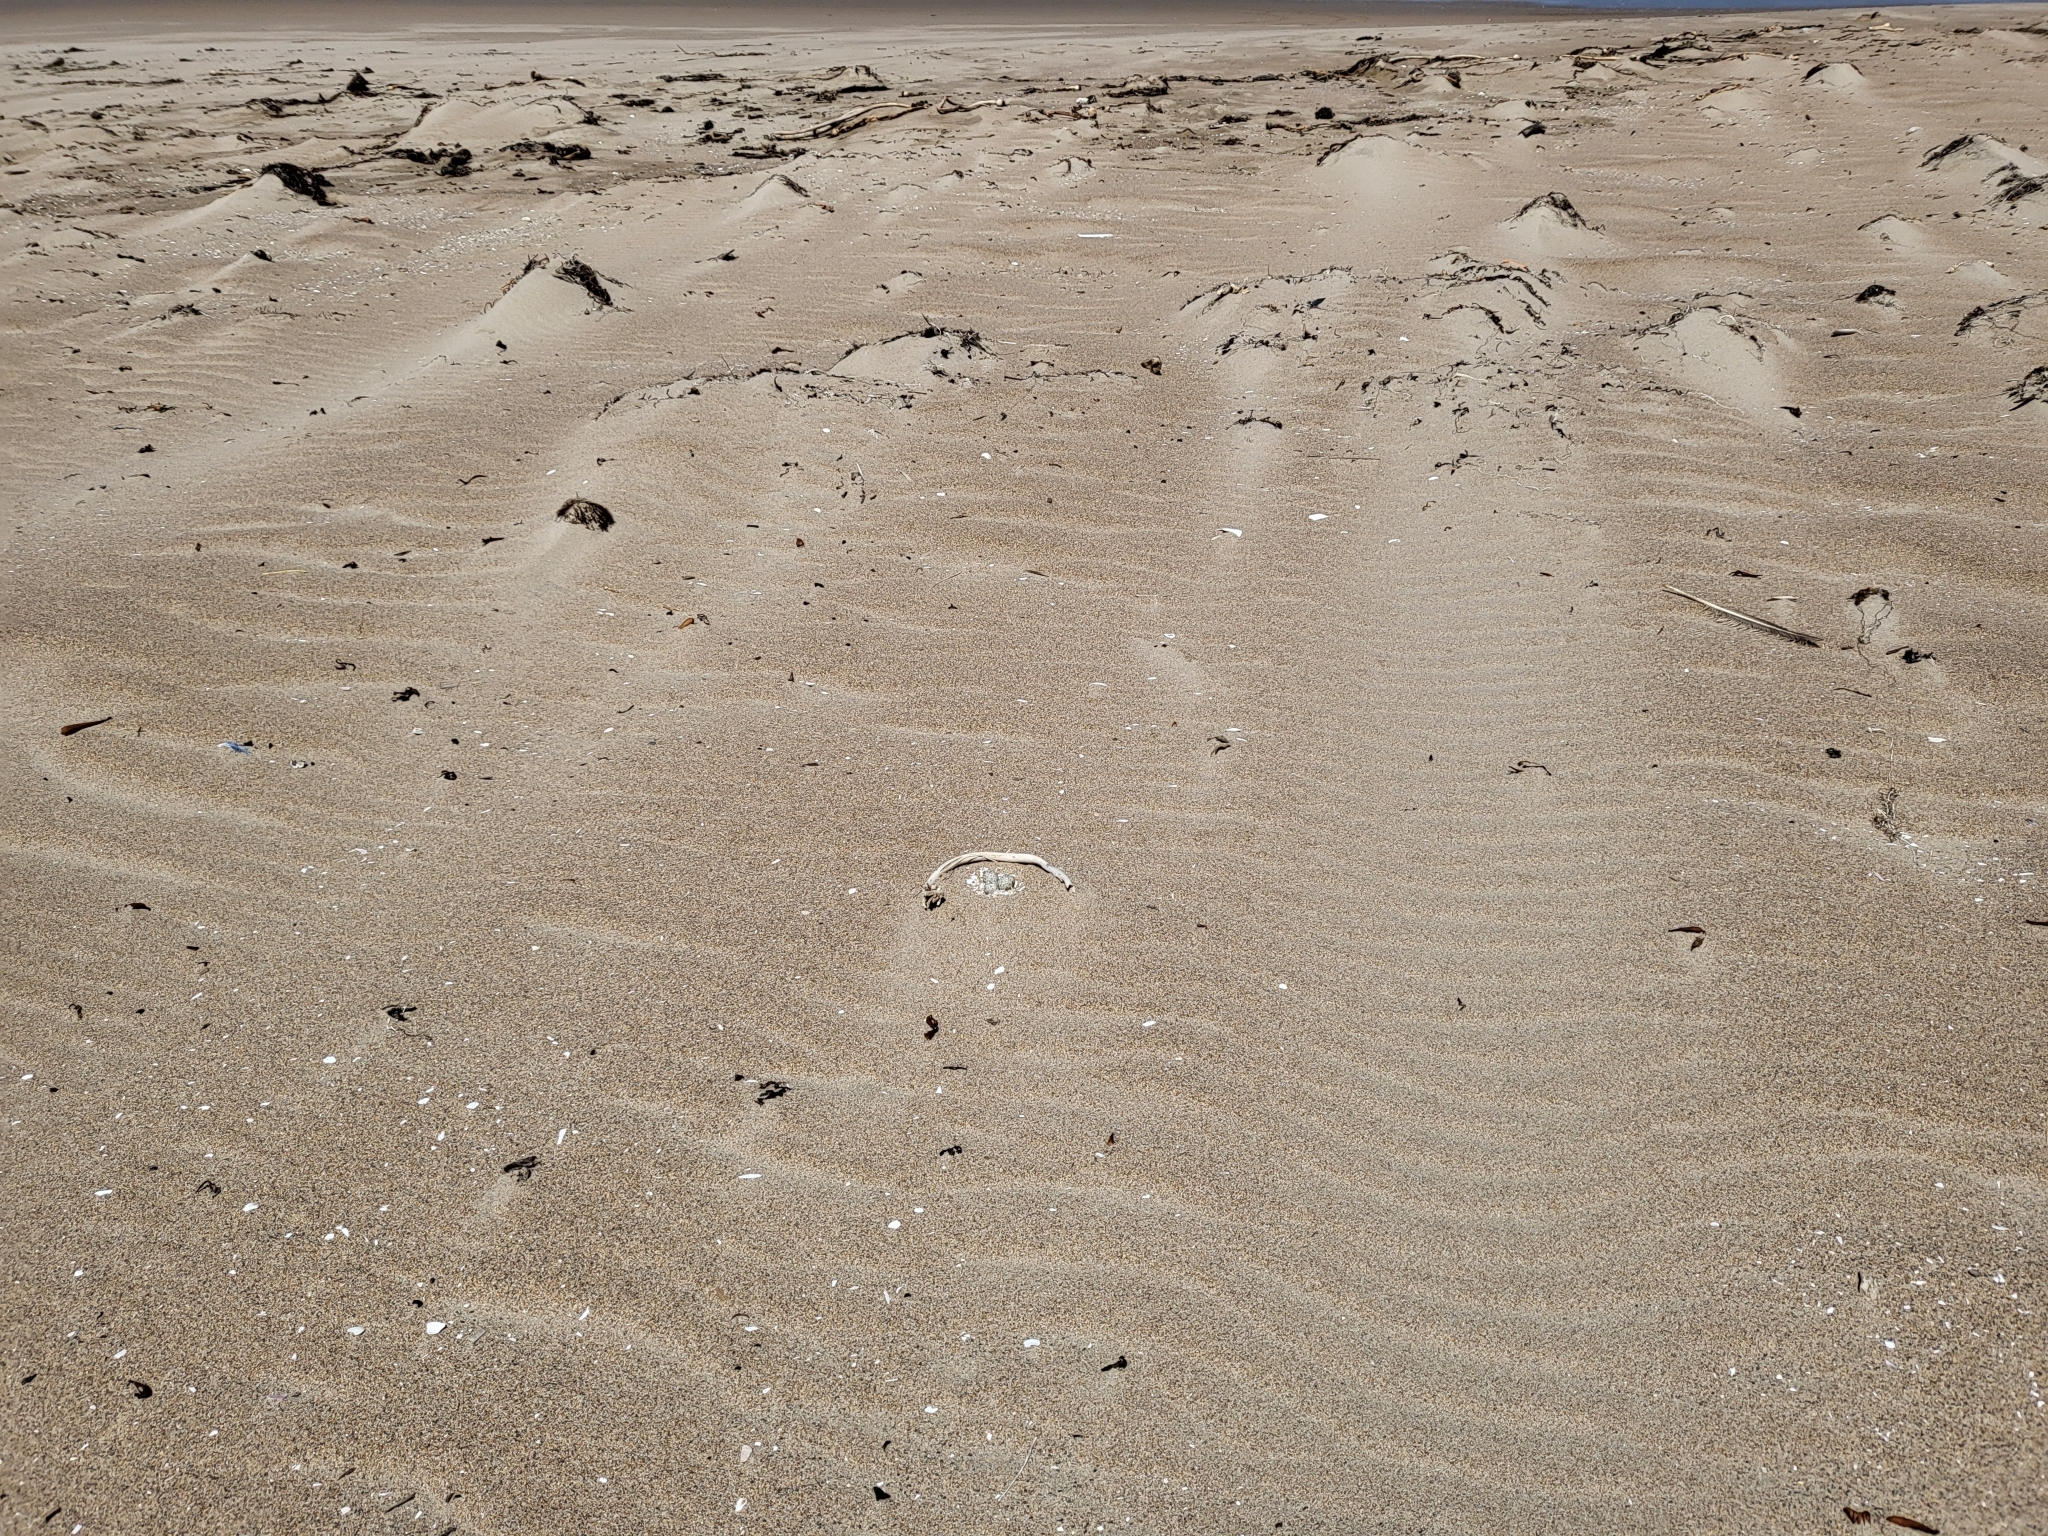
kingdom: Animalia
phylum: Chordata
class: Aves
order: Charadriiformes
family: Charadriidae
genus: Anarhynchus
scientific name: Anarhynchus
